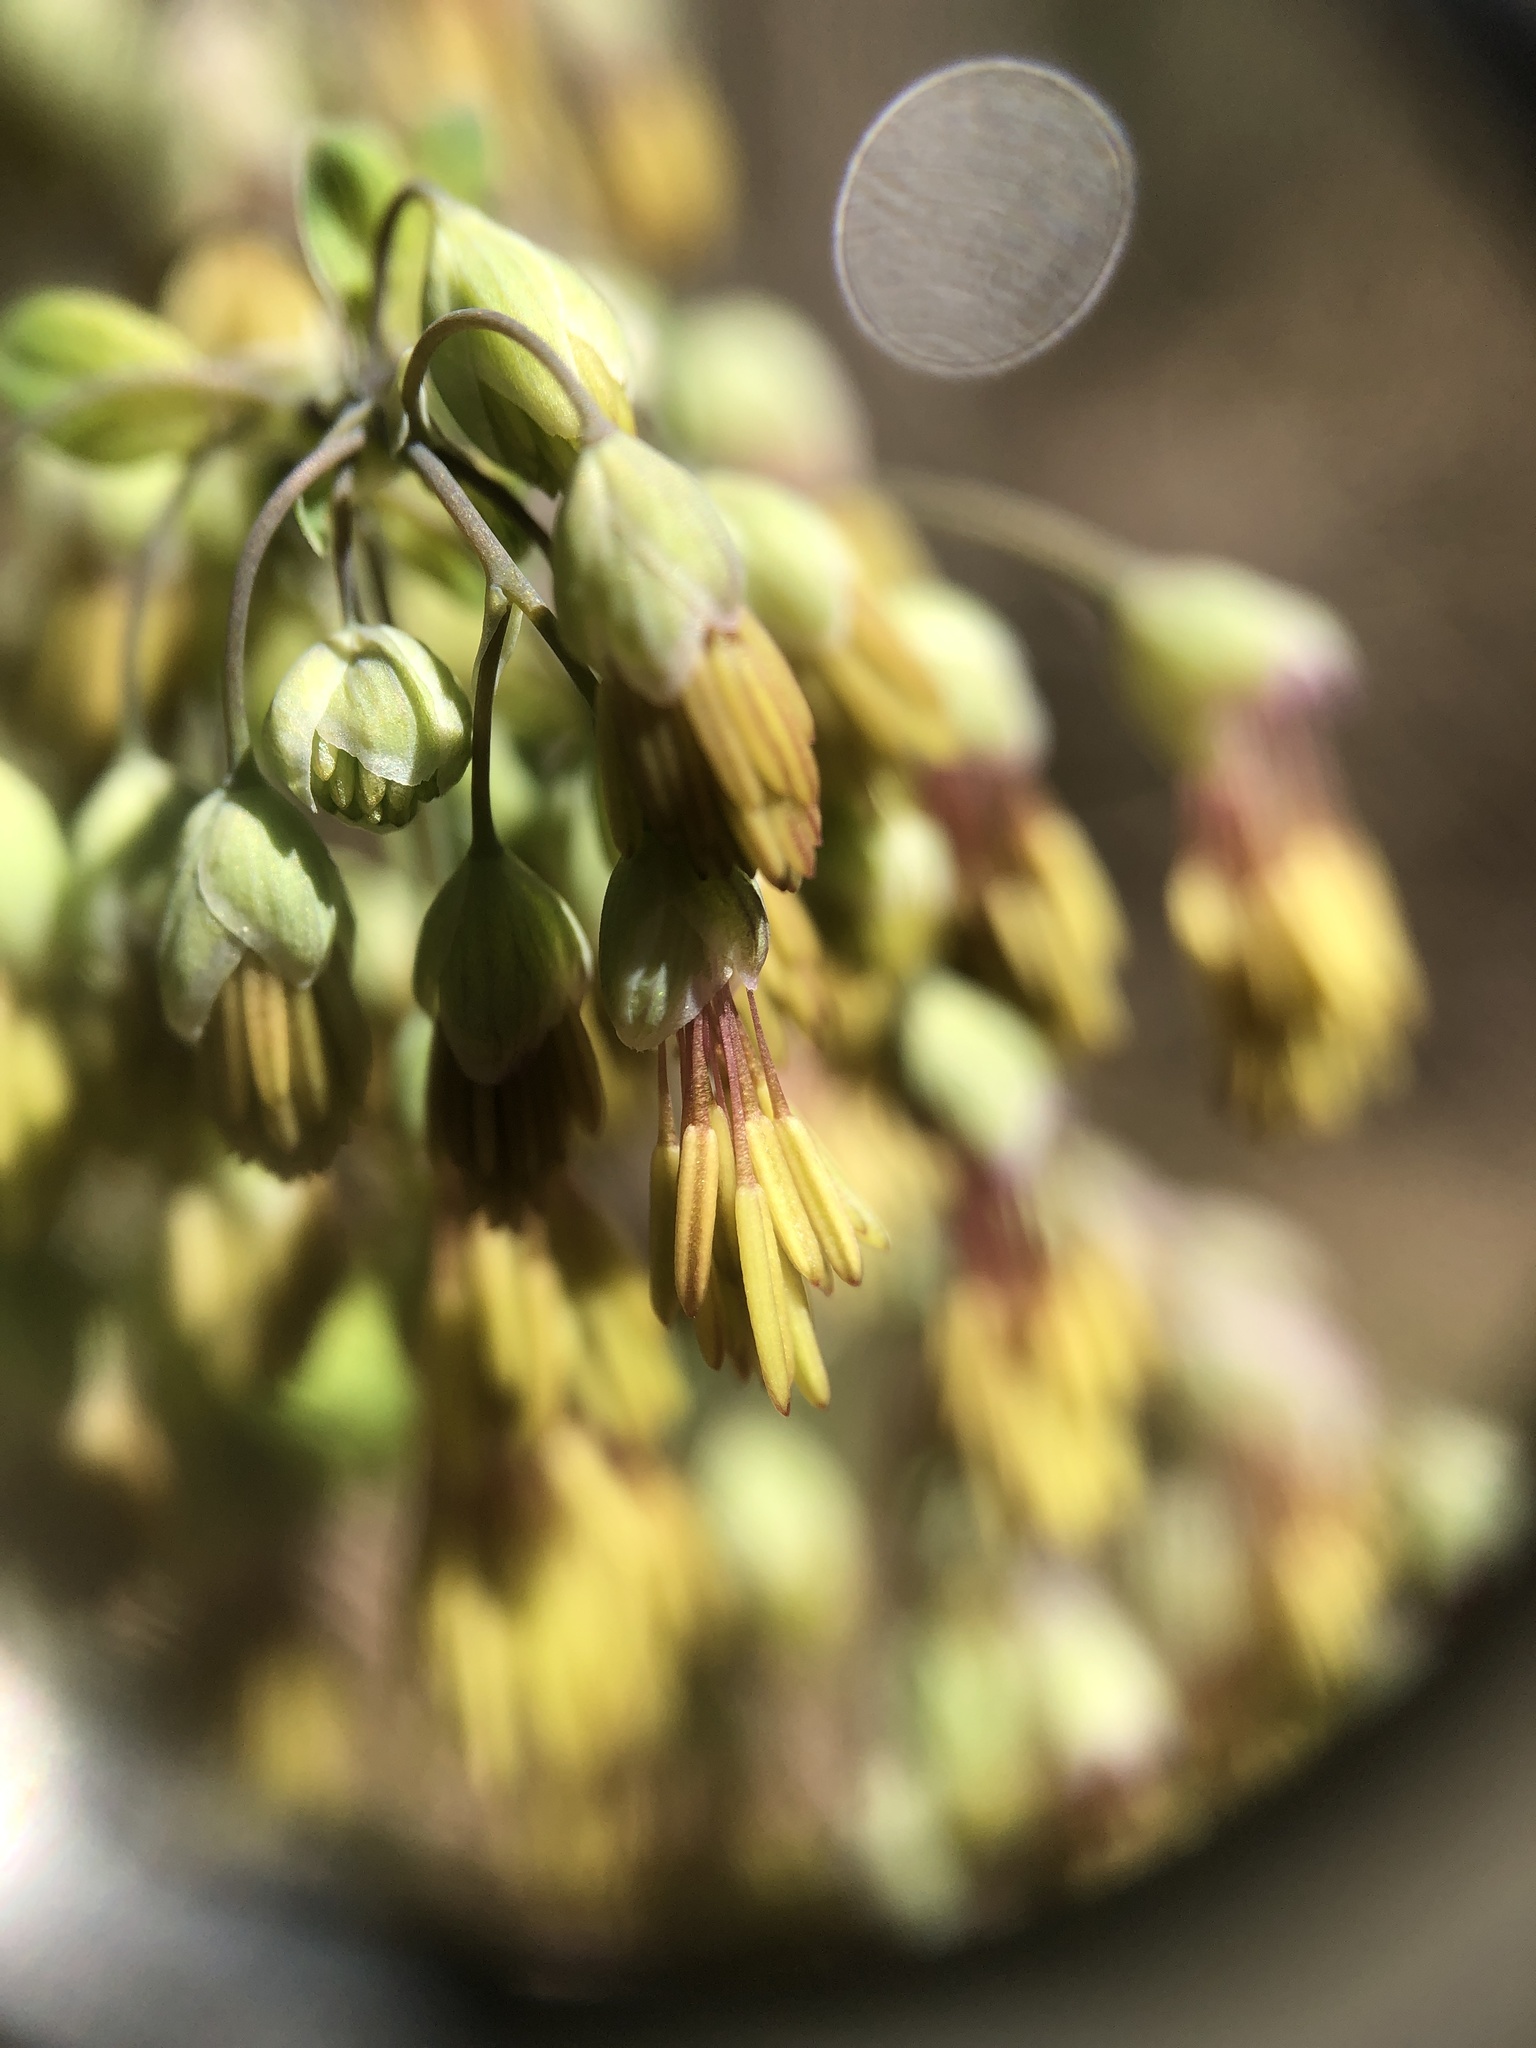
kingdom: Plantae
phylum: Tracheophyta
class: Magnoliopsida
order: Ranunculales
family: Ranunculaceae
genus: Thalictrum
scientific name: Thalictrum dioicum
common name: Early meadow-rue
